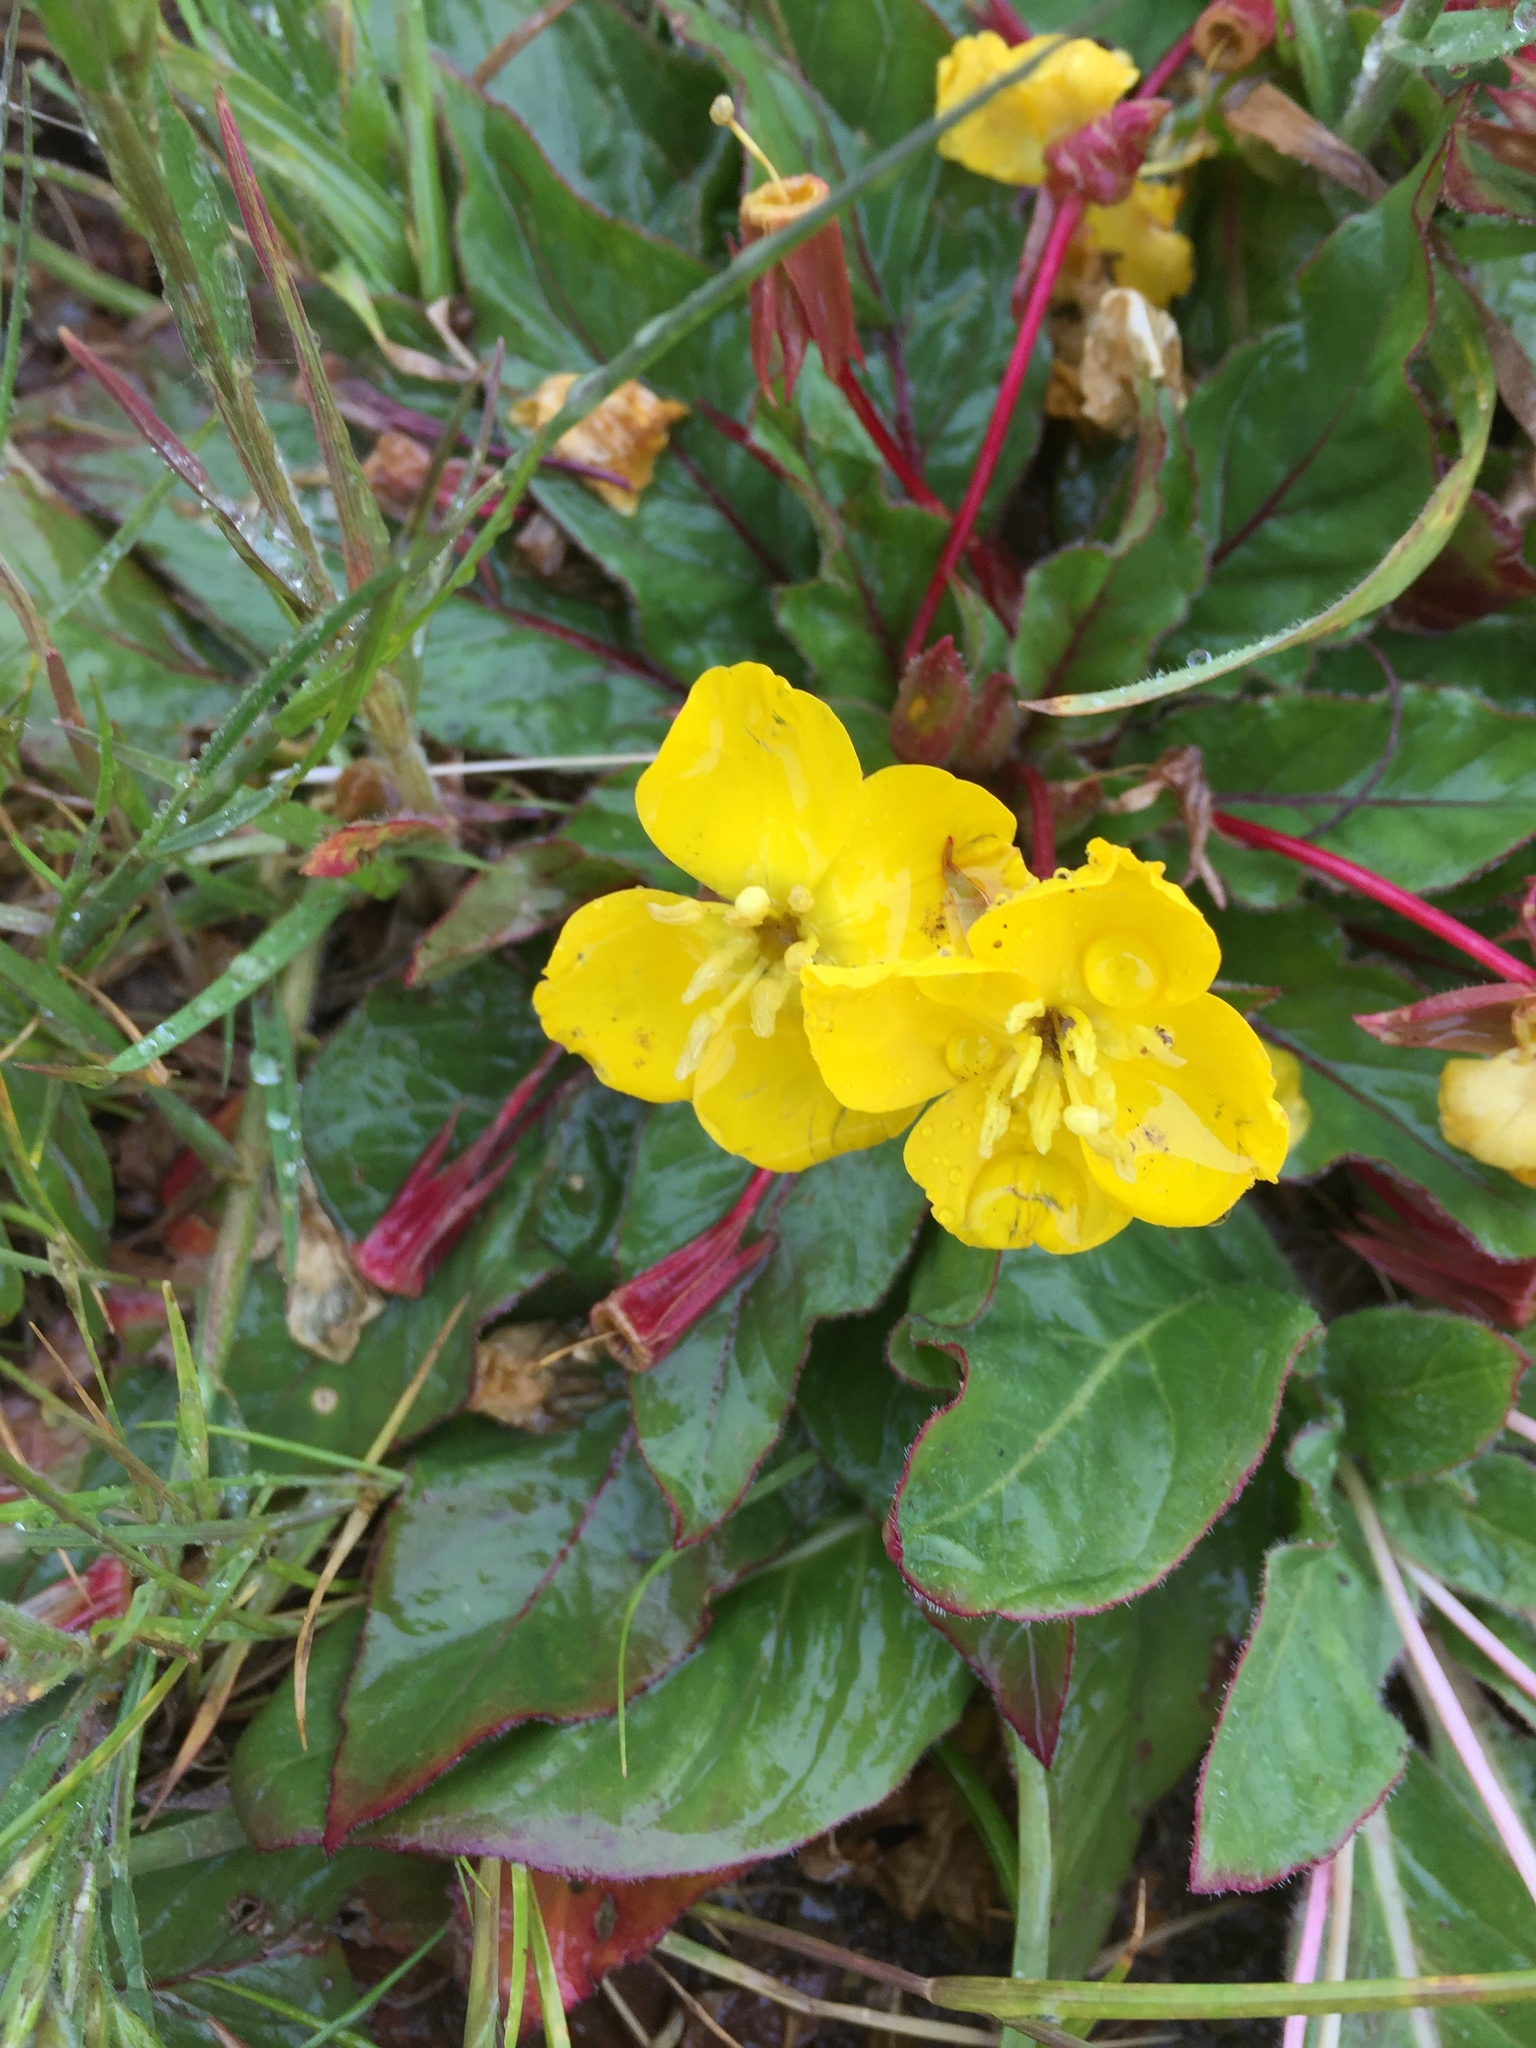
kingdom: Plantae
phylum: Tracheophyta
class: Magnoliopsida
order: Myrtales
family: Onagraceae
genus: Taraxia
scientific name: Taraxia ovata
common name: Goldeneggs
